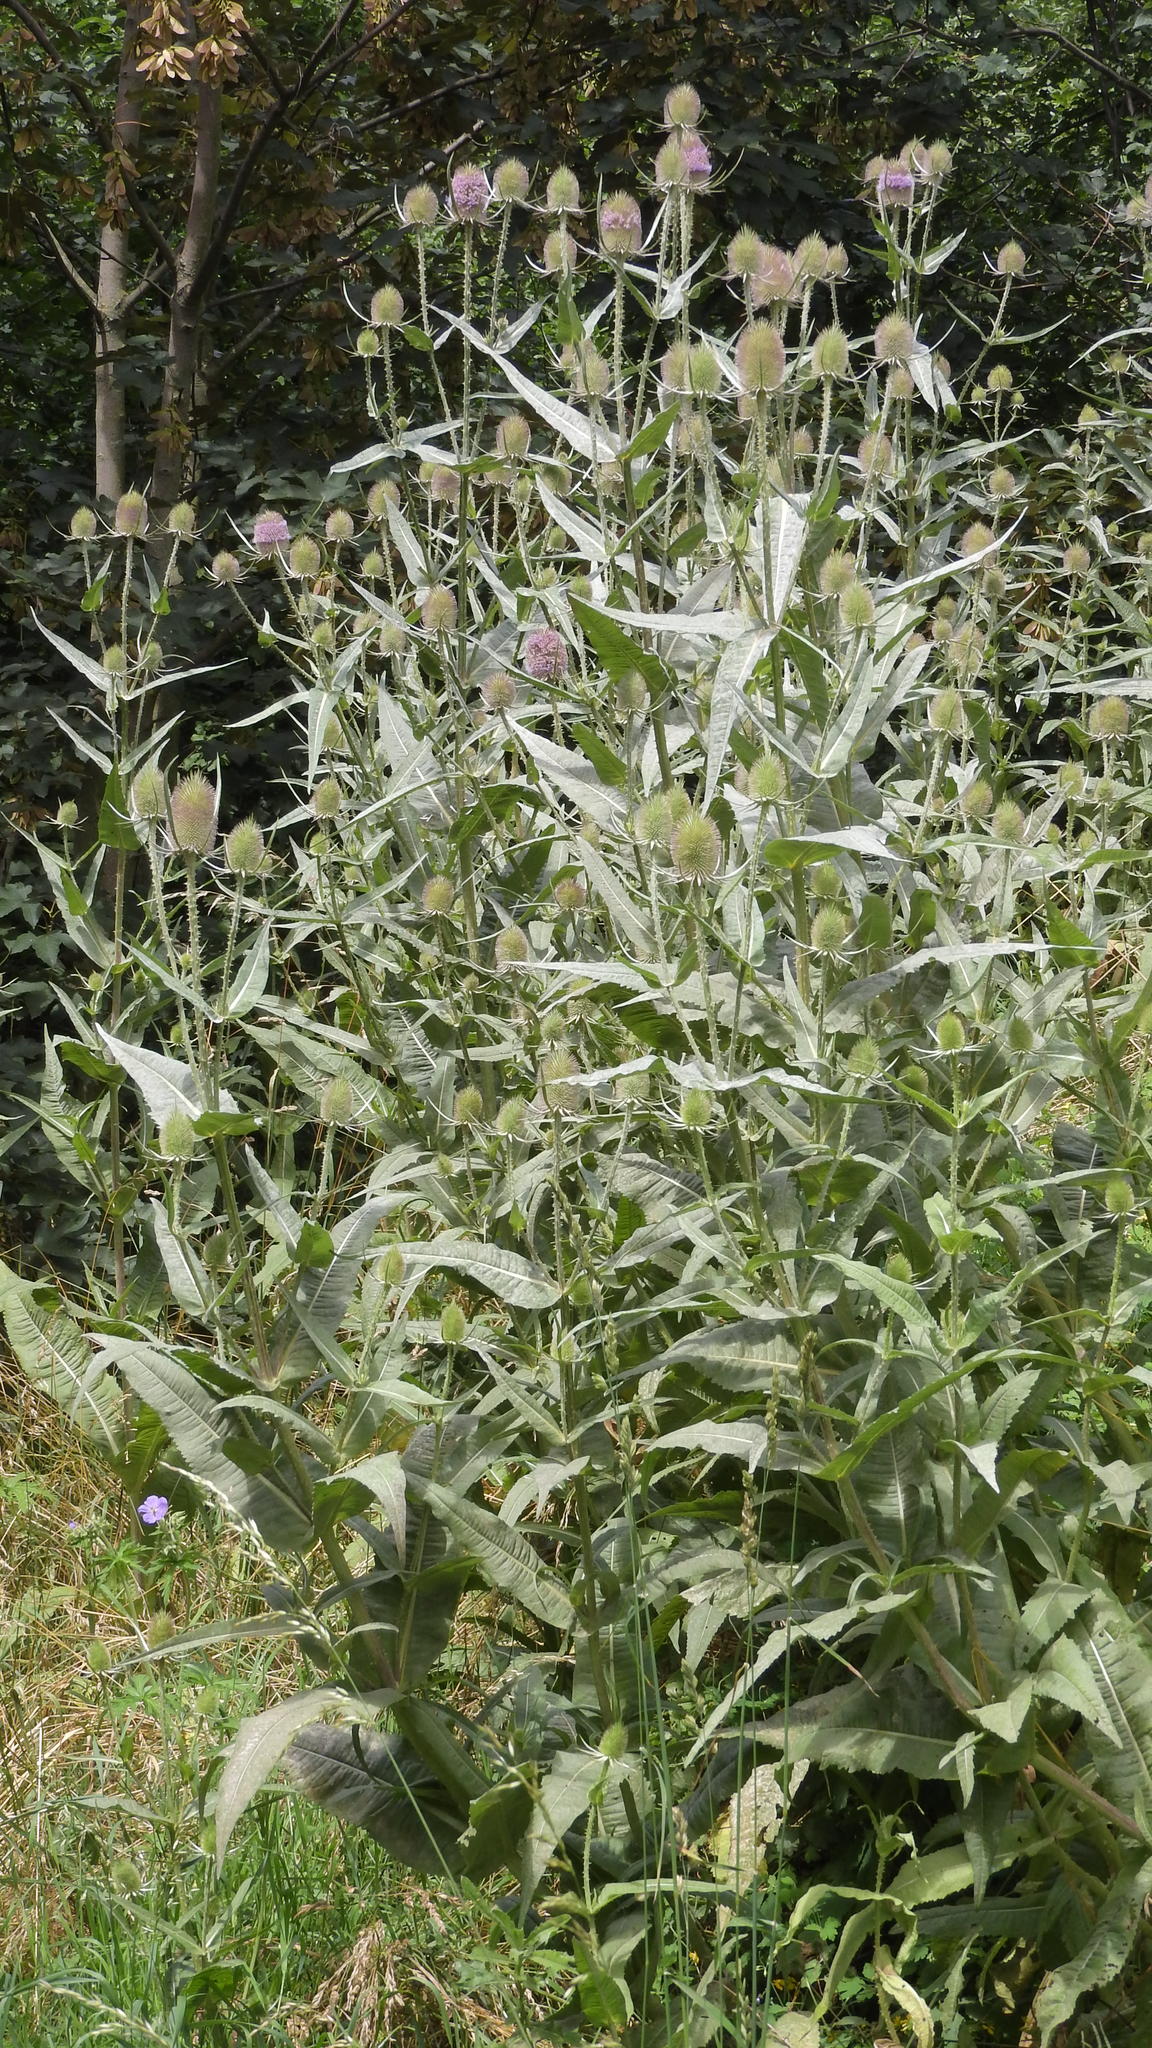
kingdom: Plantae
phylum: Tracheophyta
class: Magnoliopsida
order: Dipsacales
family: Caprifoliaceae
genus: Dipsacus
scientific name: Dipsacus fullonum
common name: Teasel
